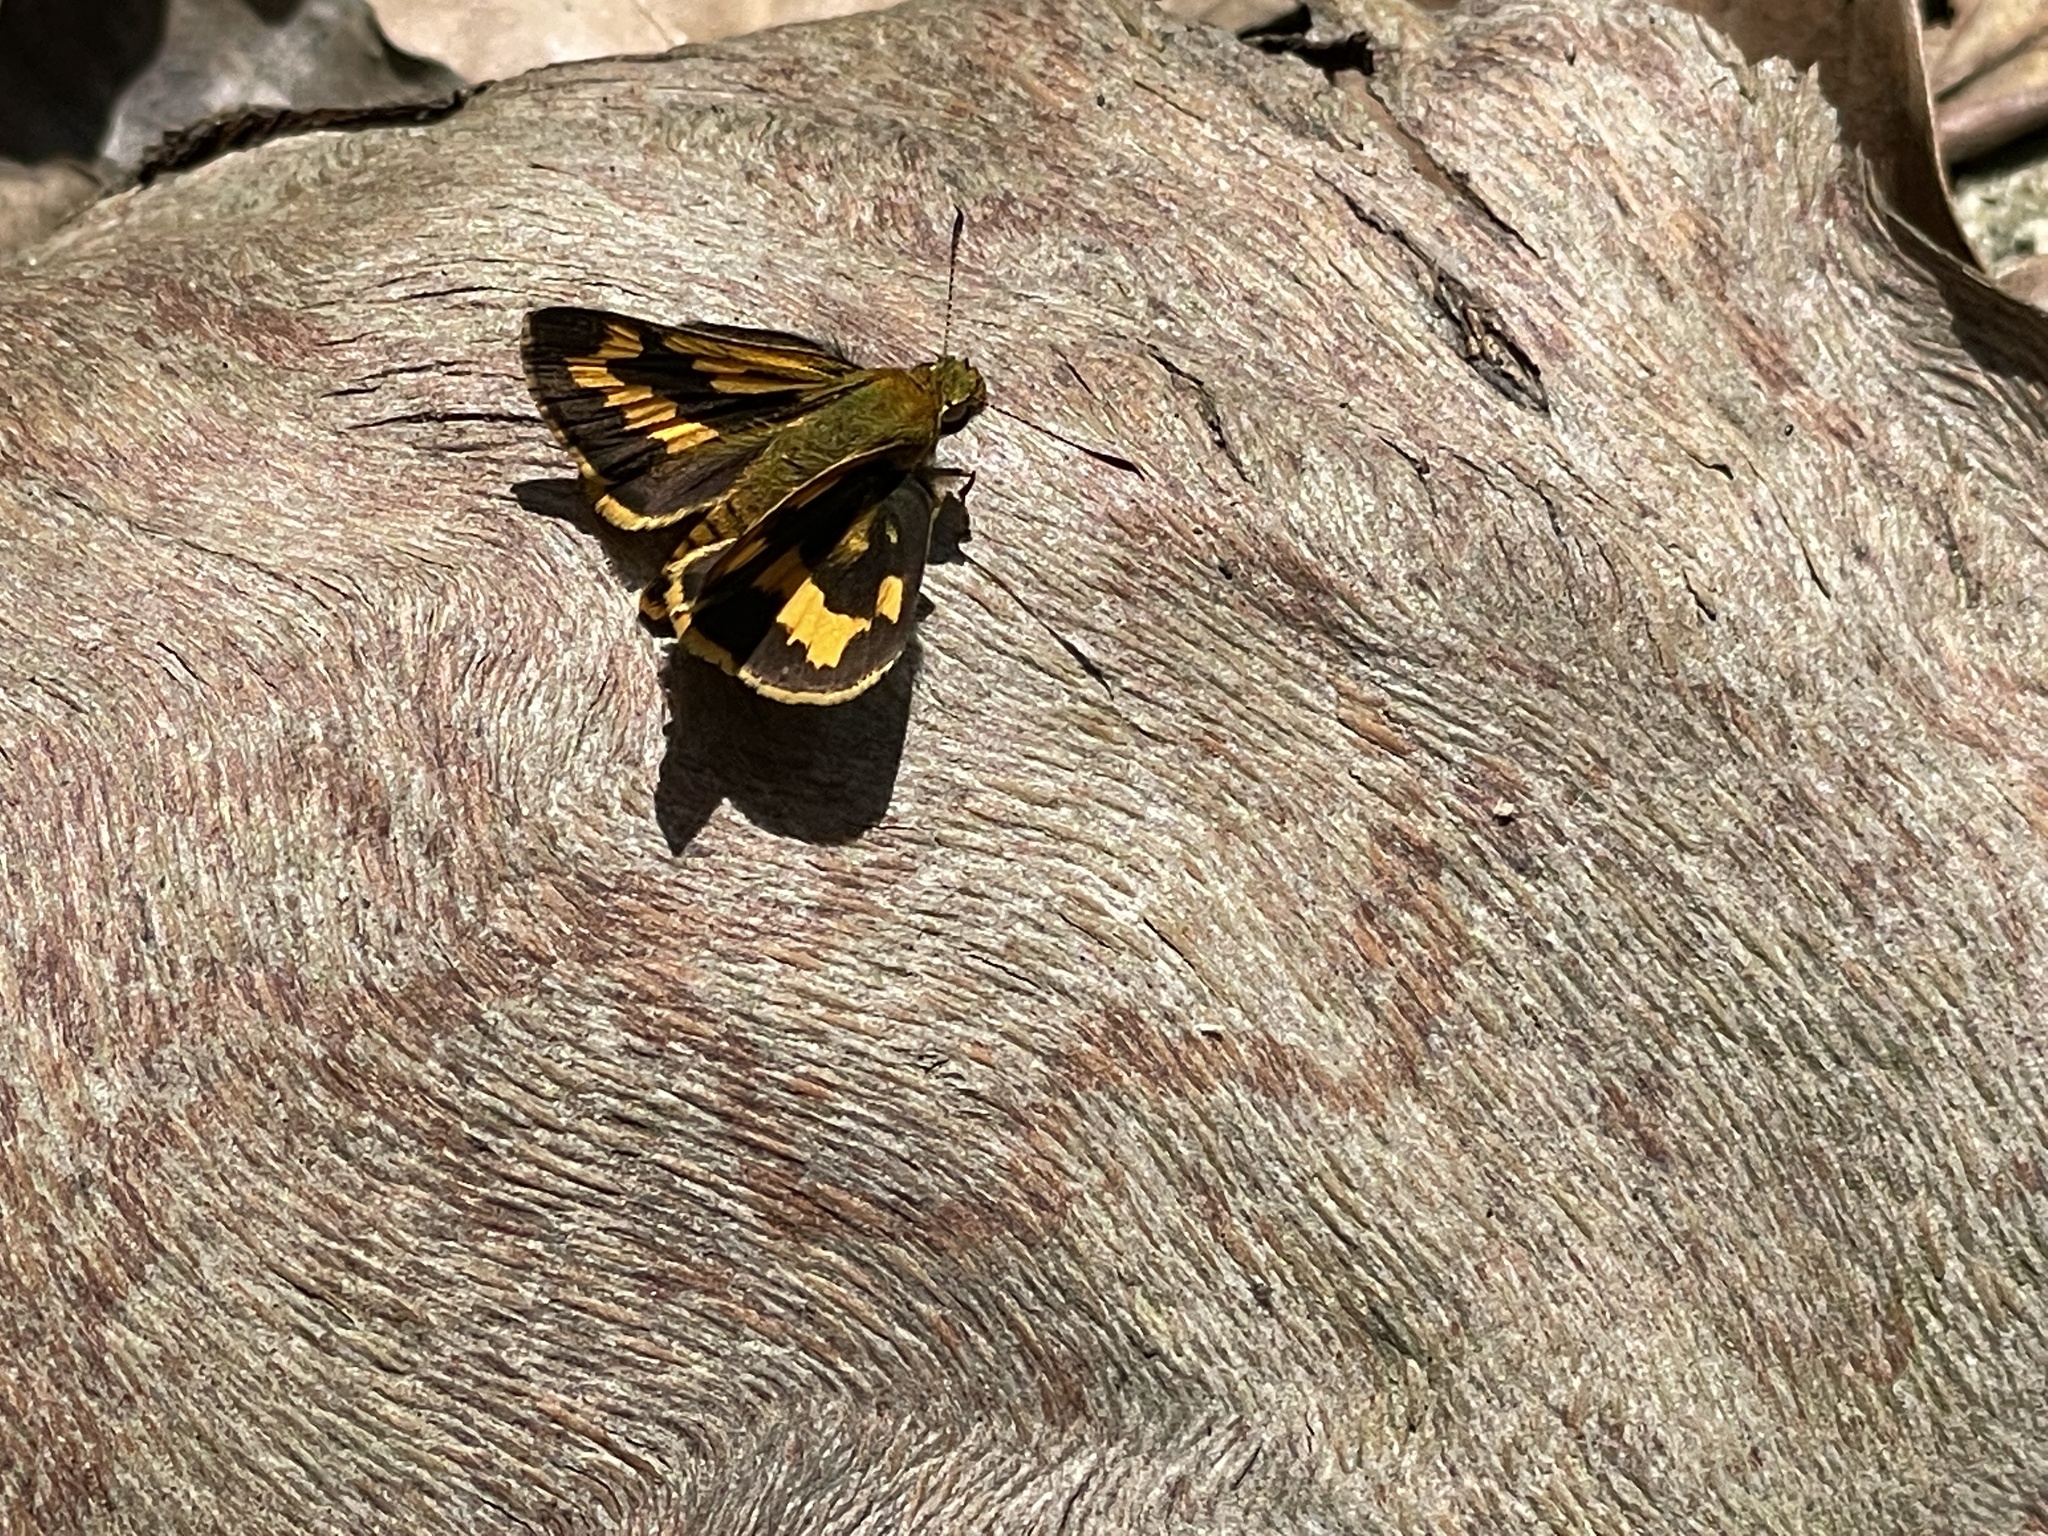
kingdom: Animalia
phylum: Arthropoda
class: Insecta
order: Lepidoptera
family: Hesperiidae
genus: Potanthus
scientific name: Potanthus pava
